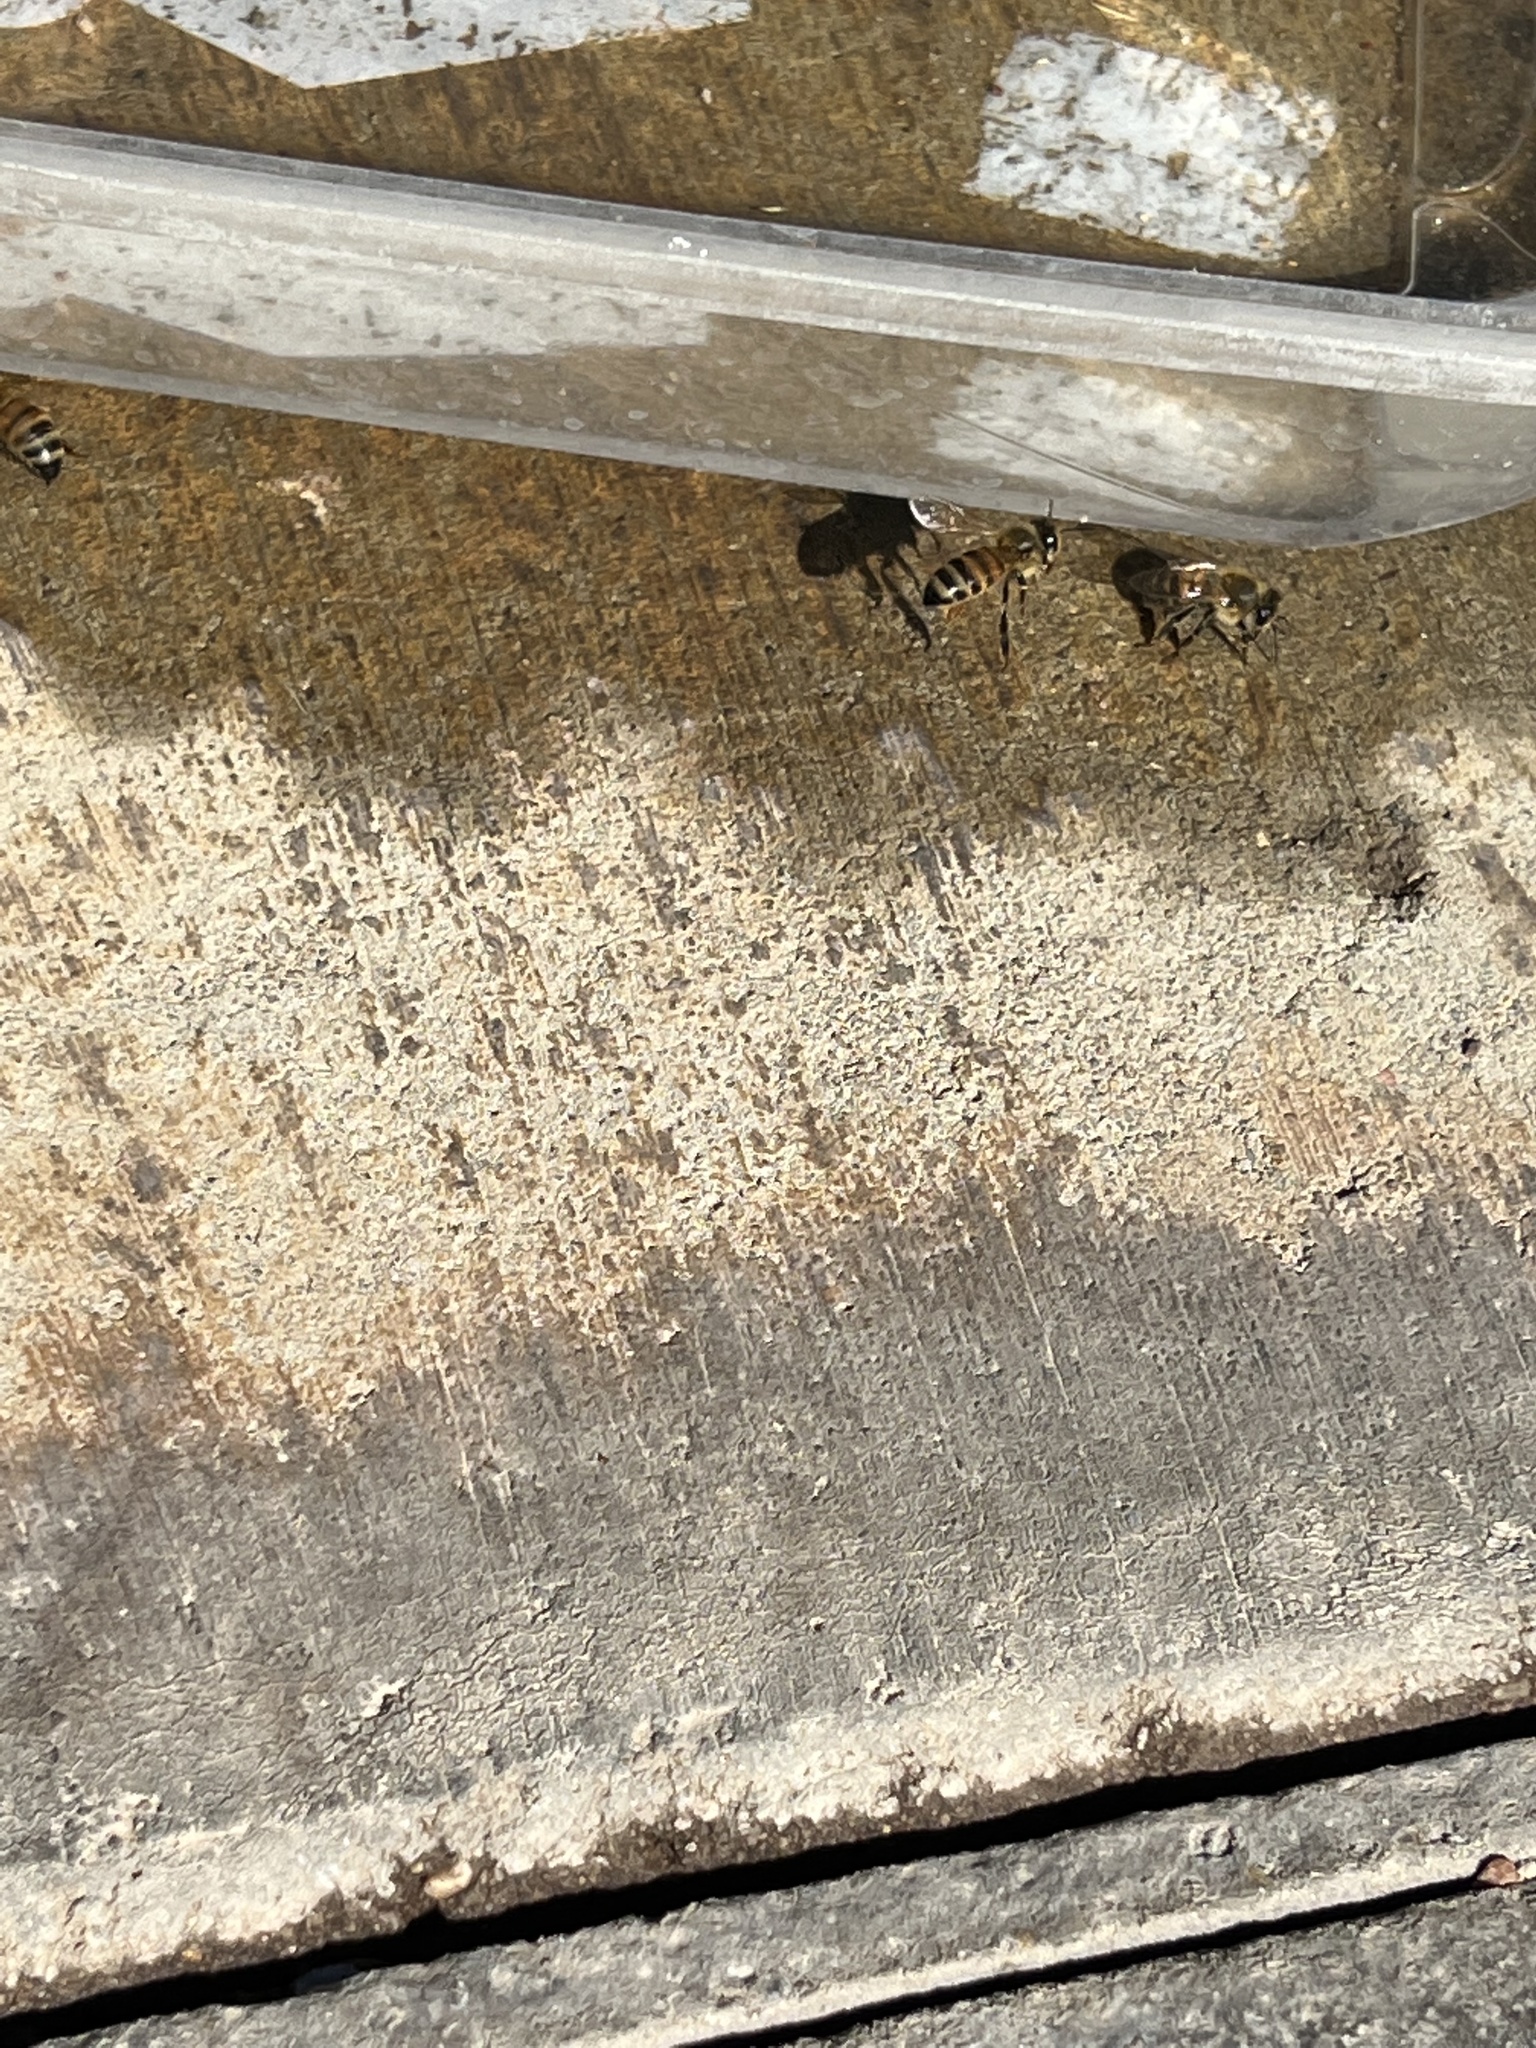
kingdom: Animalia
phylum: Arthropoda
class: Insecta
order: Hymenoptera
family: Apidae
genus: Apis
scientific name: Apis mellifera
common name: Honey bee
